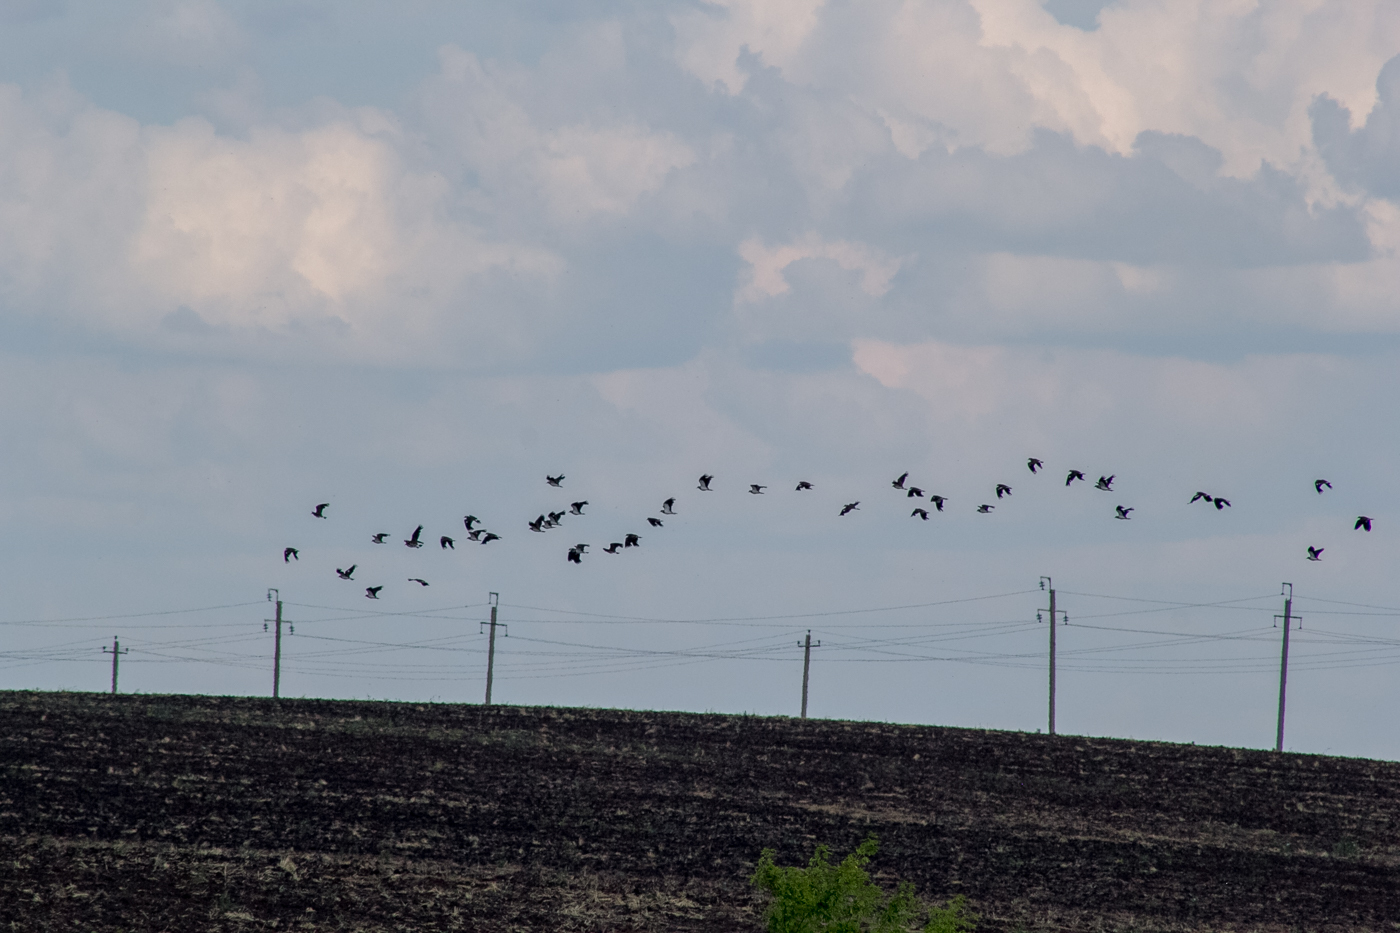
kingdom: Animalia
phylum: Chordata
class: Aves
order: Charadriiformes
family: Charadriidae
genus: Vanellus
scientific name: Vanellus vanellus
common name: Northern lapwing
